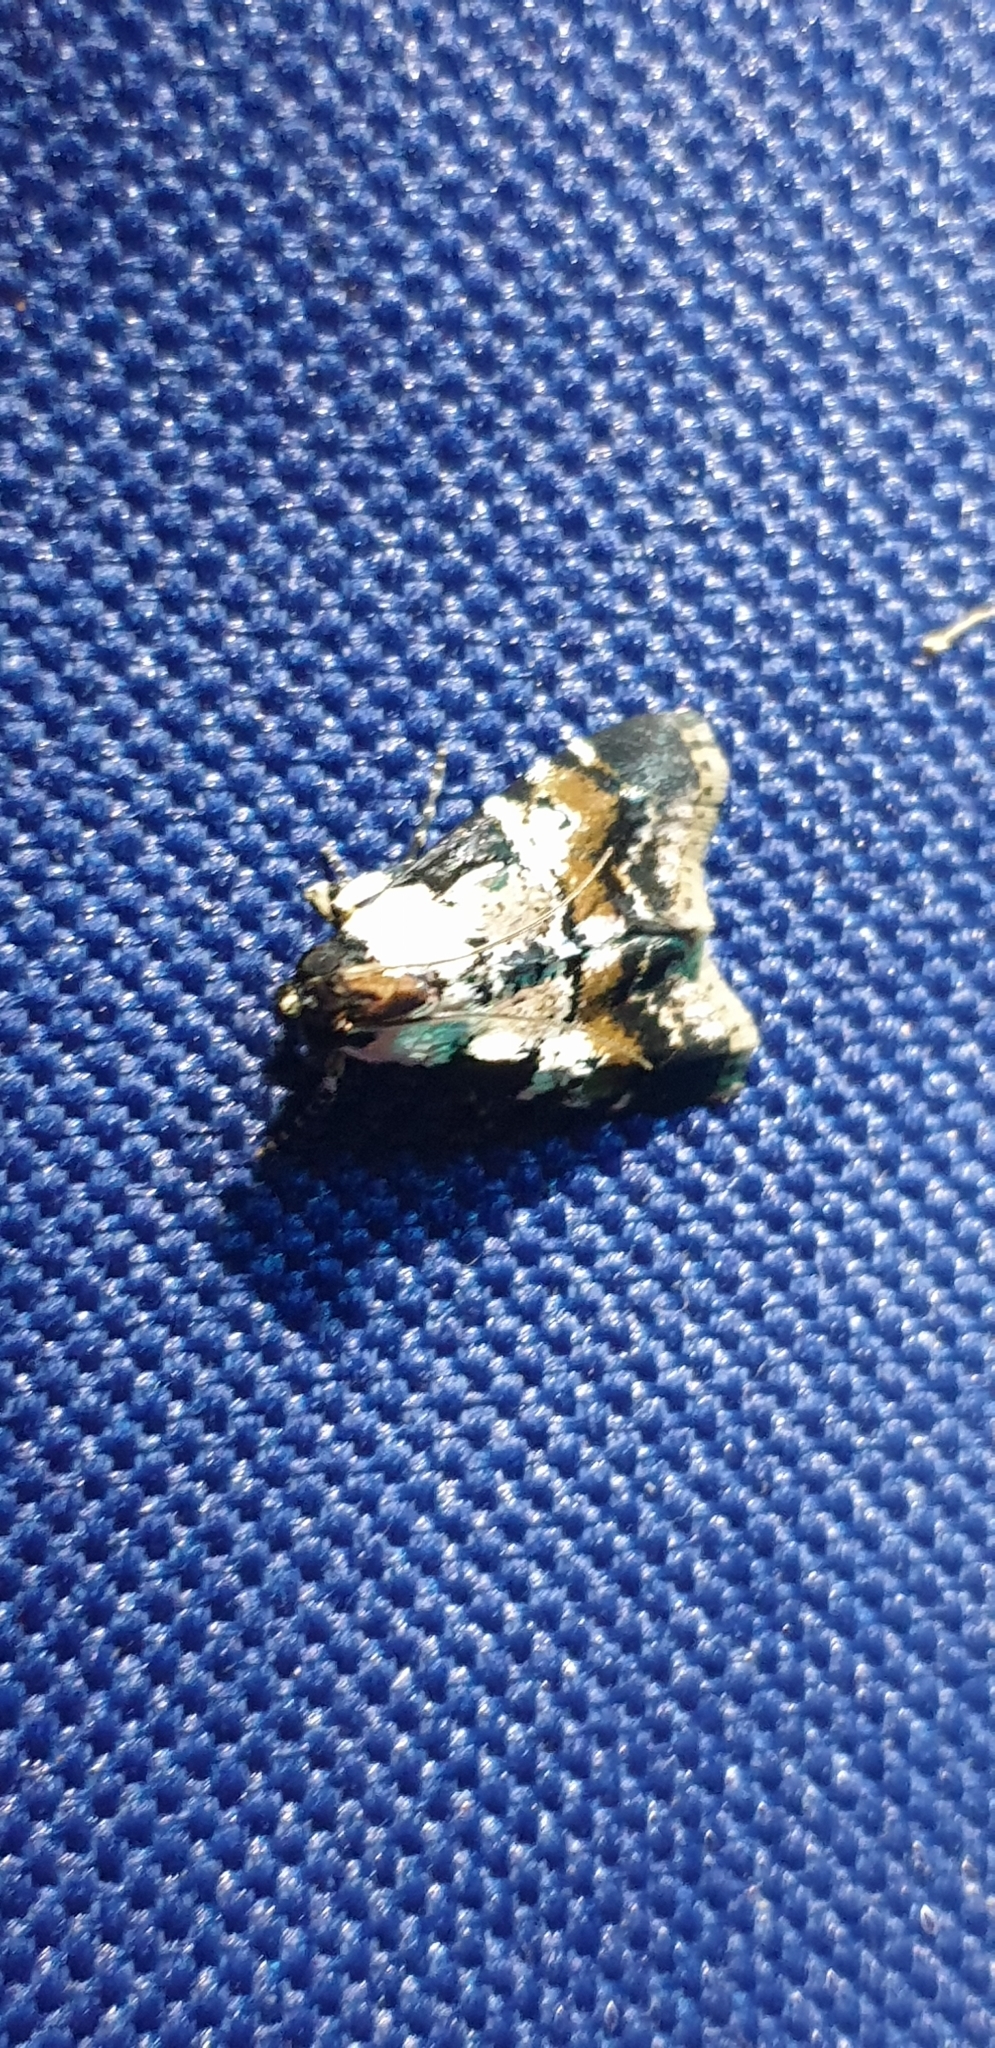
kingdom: Animalia
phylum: Arthropoda
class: Insecta
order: Lepidoptera
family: Pyralidae
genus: Orthaga
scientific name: Orthaga seminivea
